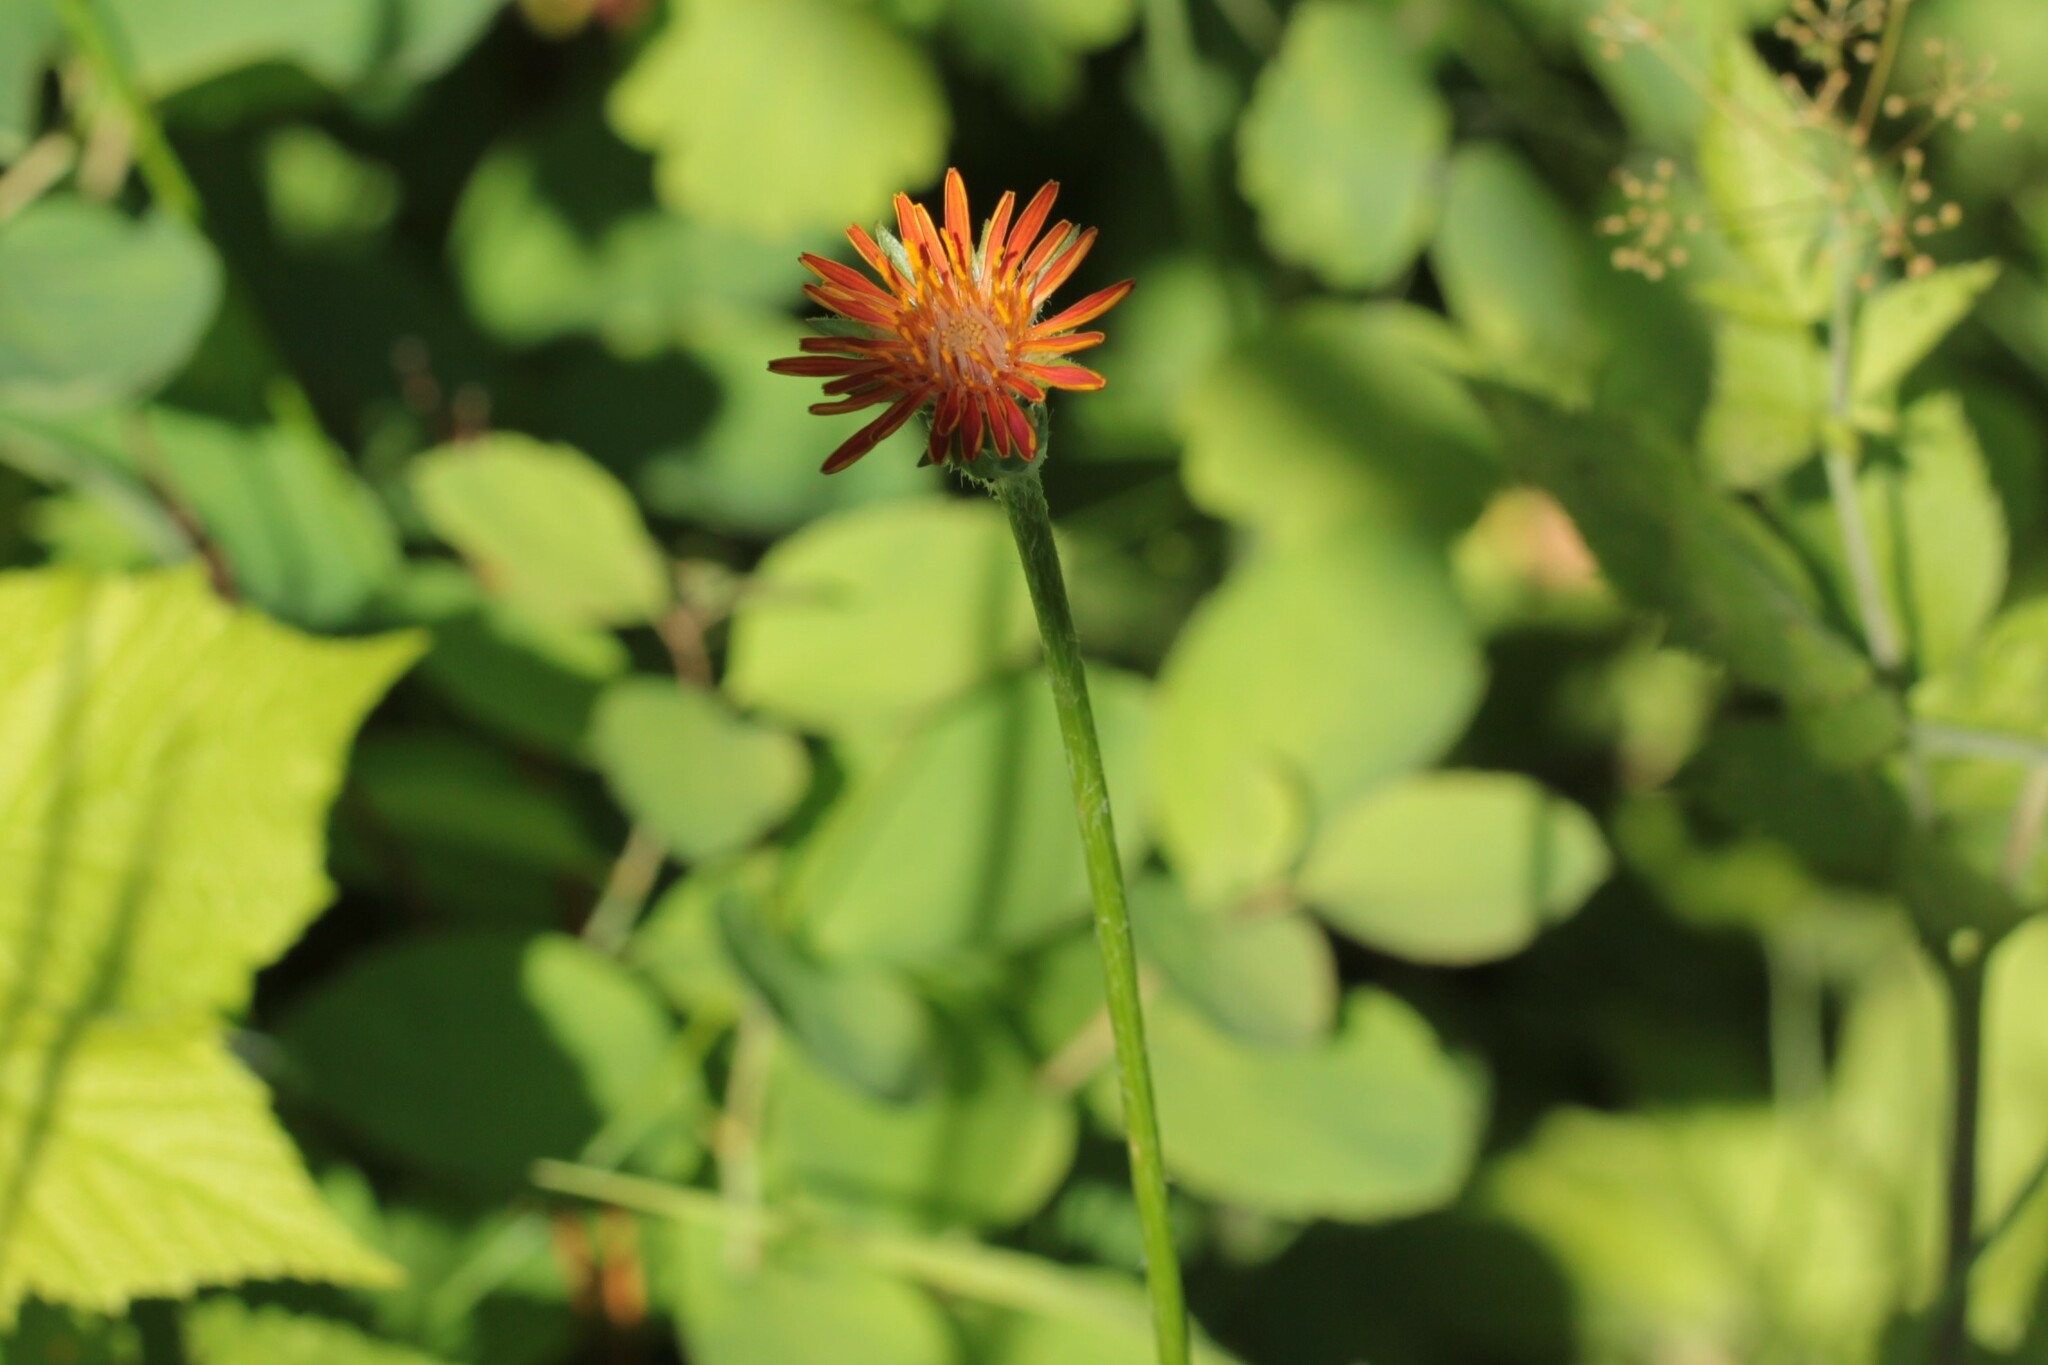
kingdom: Plantae
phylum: Tracheophyta
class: Magnoliopsida
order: Asterales
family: Asteraceae
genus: Pilosella
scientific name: Pilosella aurantiaca
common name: Fox-and-cubs
